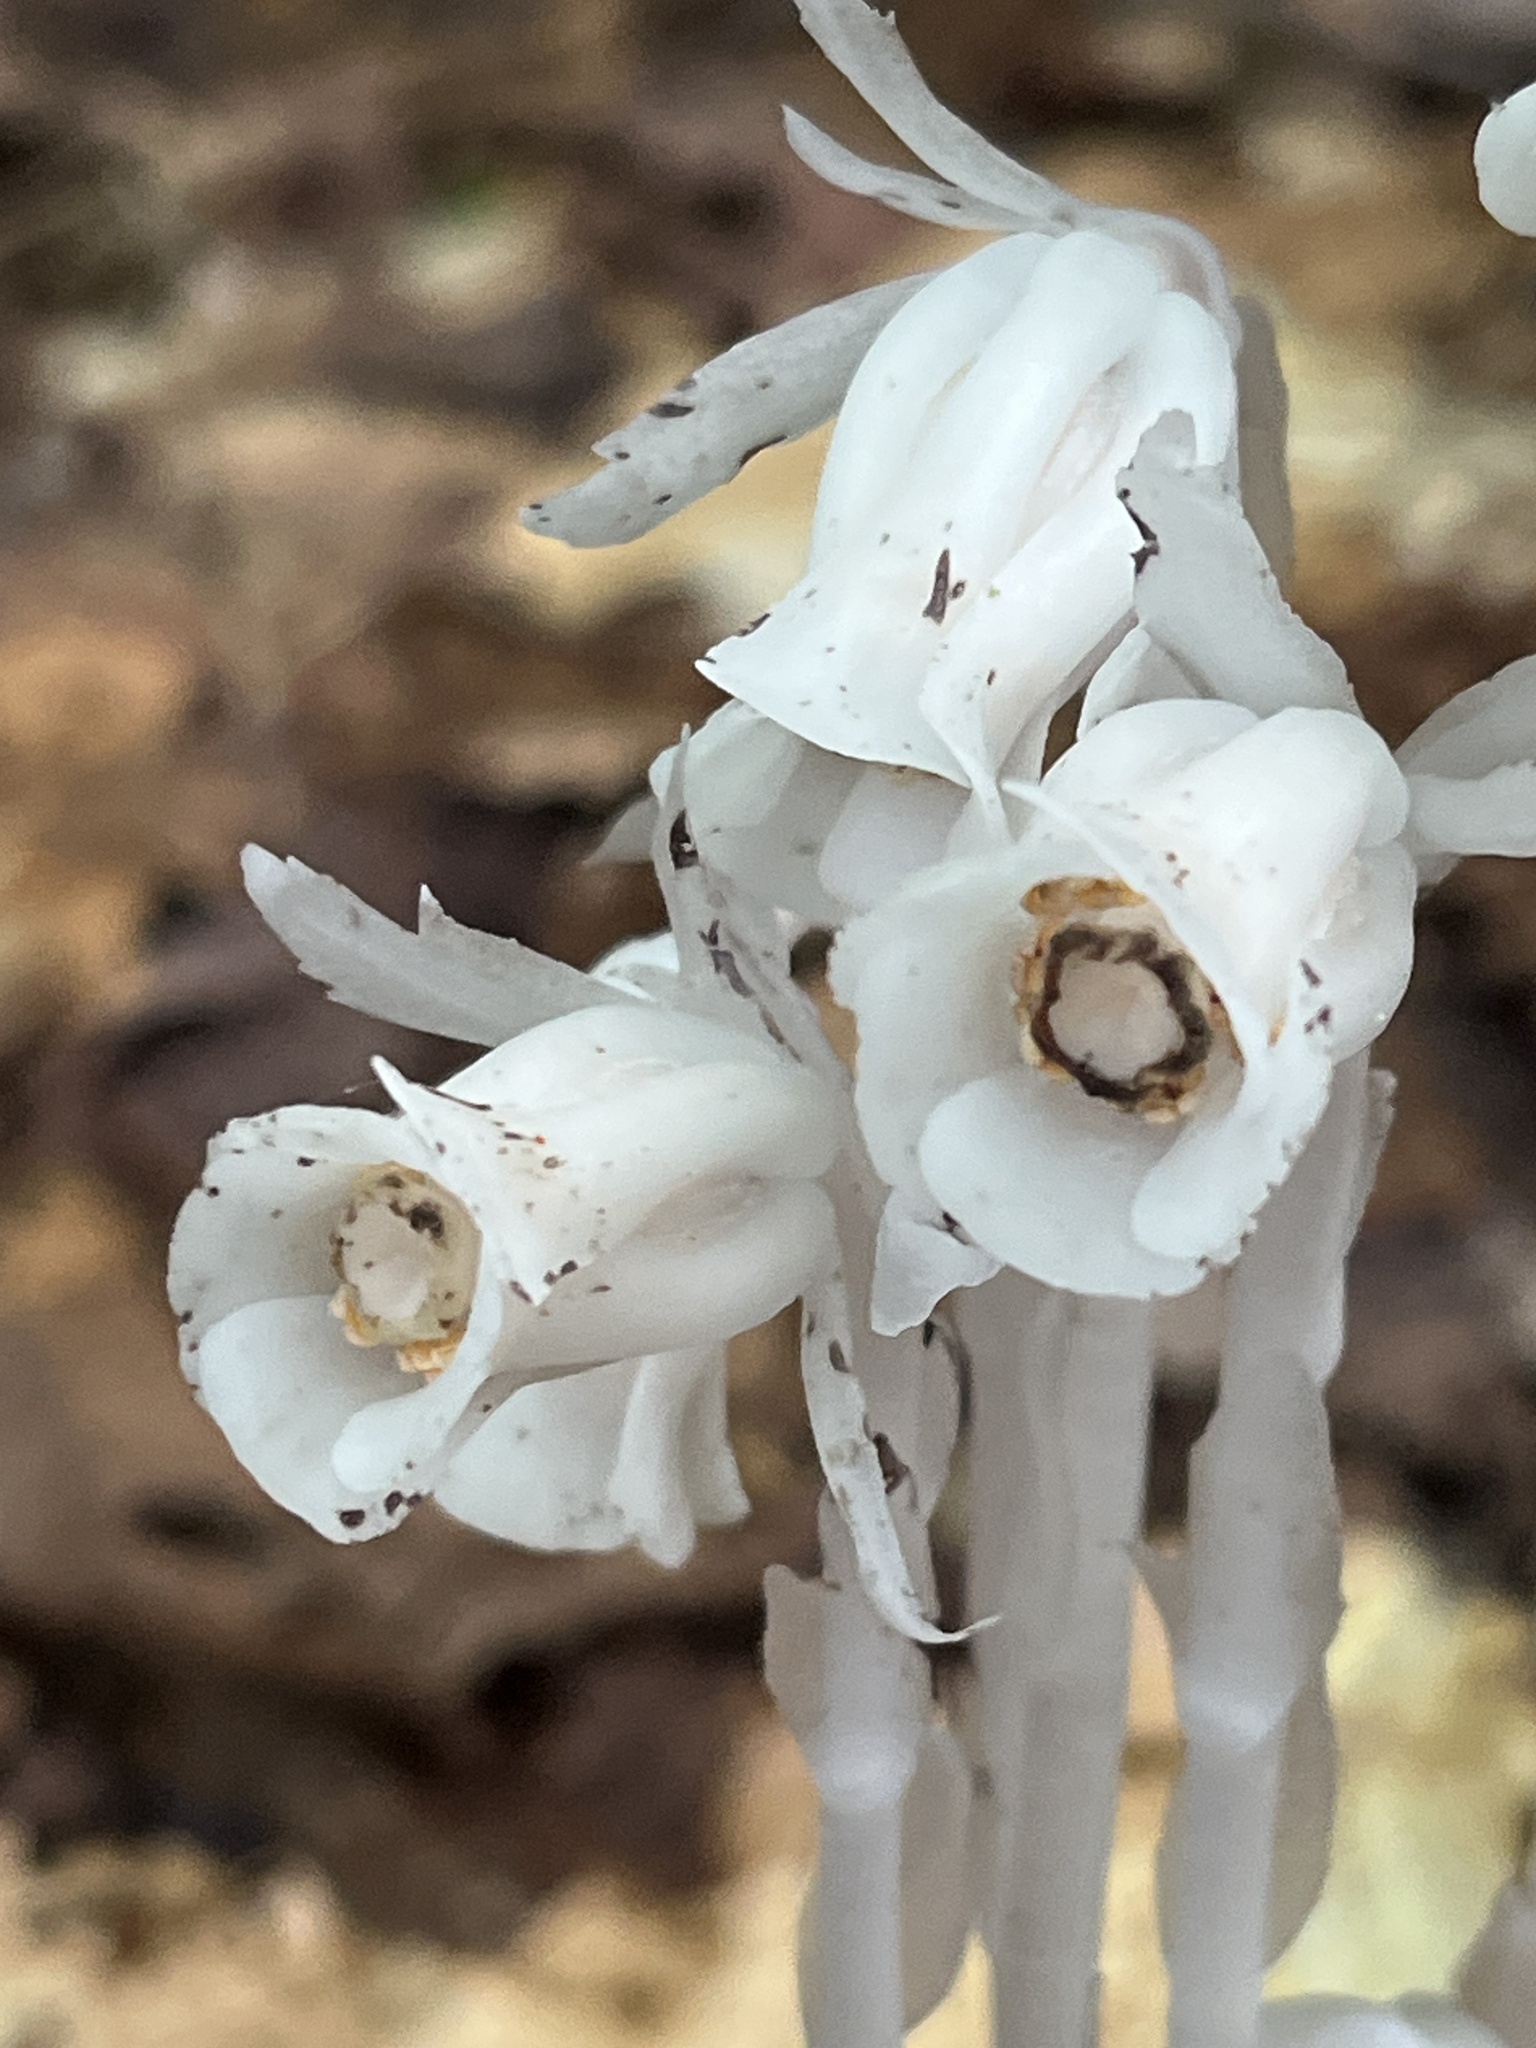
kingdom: Plantae
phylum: Tracheophyta
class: Magnoliopsida
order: Ericales
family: Ericaceae
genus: Monotropa
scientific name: Monotropa uniflora
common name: Convulsion root
